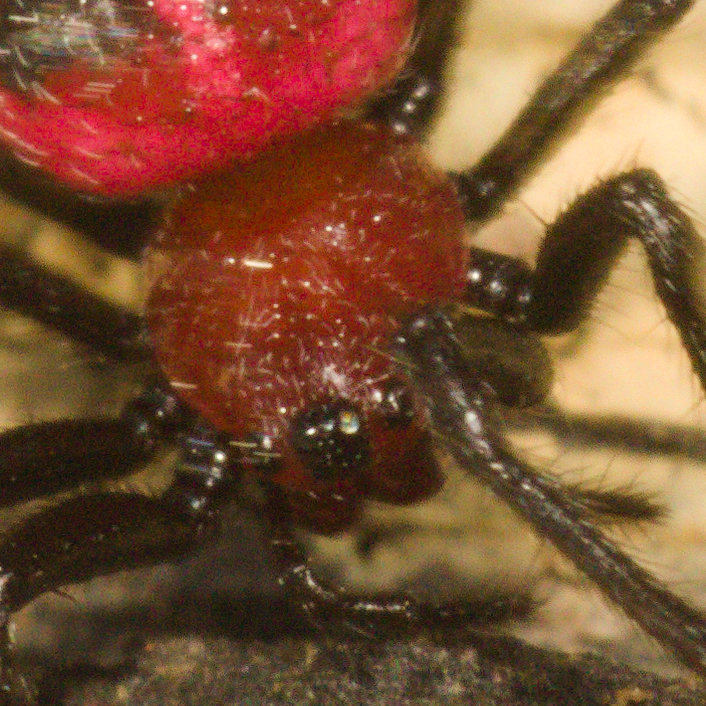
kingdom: Animalia
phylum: Arthropoda
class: Arachnida
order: Araneae
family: Araneidae
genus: Alpaida
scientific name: Alpaida carminea
